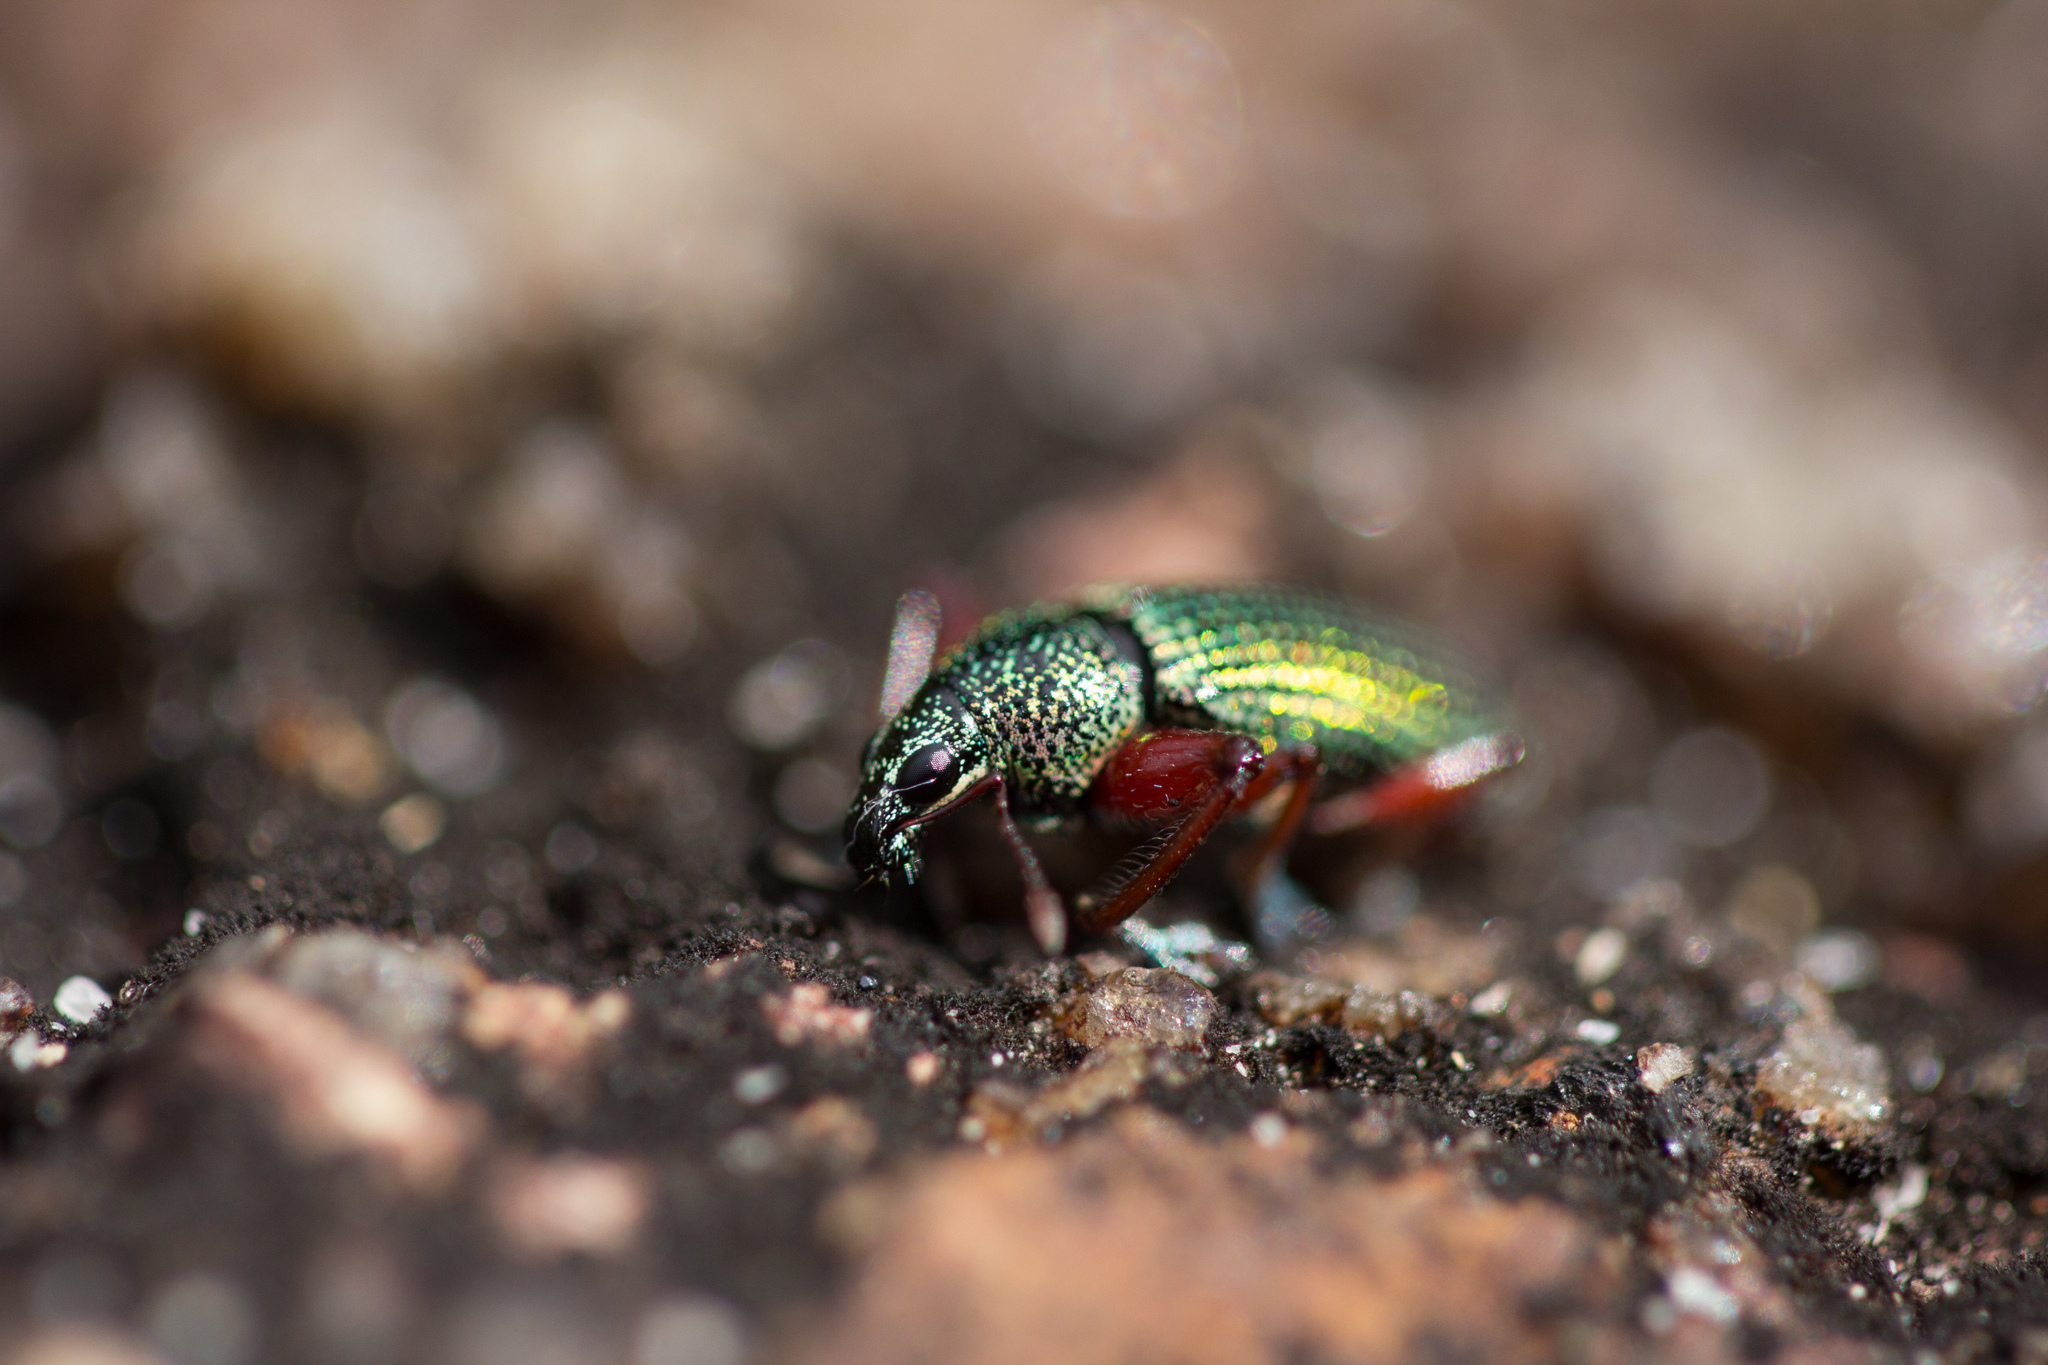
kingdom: Animalia
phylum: Arthropoda
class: Insecta
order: Coleoptera
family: Curculionidae
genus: Cratopus
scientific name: Cratopus aurostriatus
